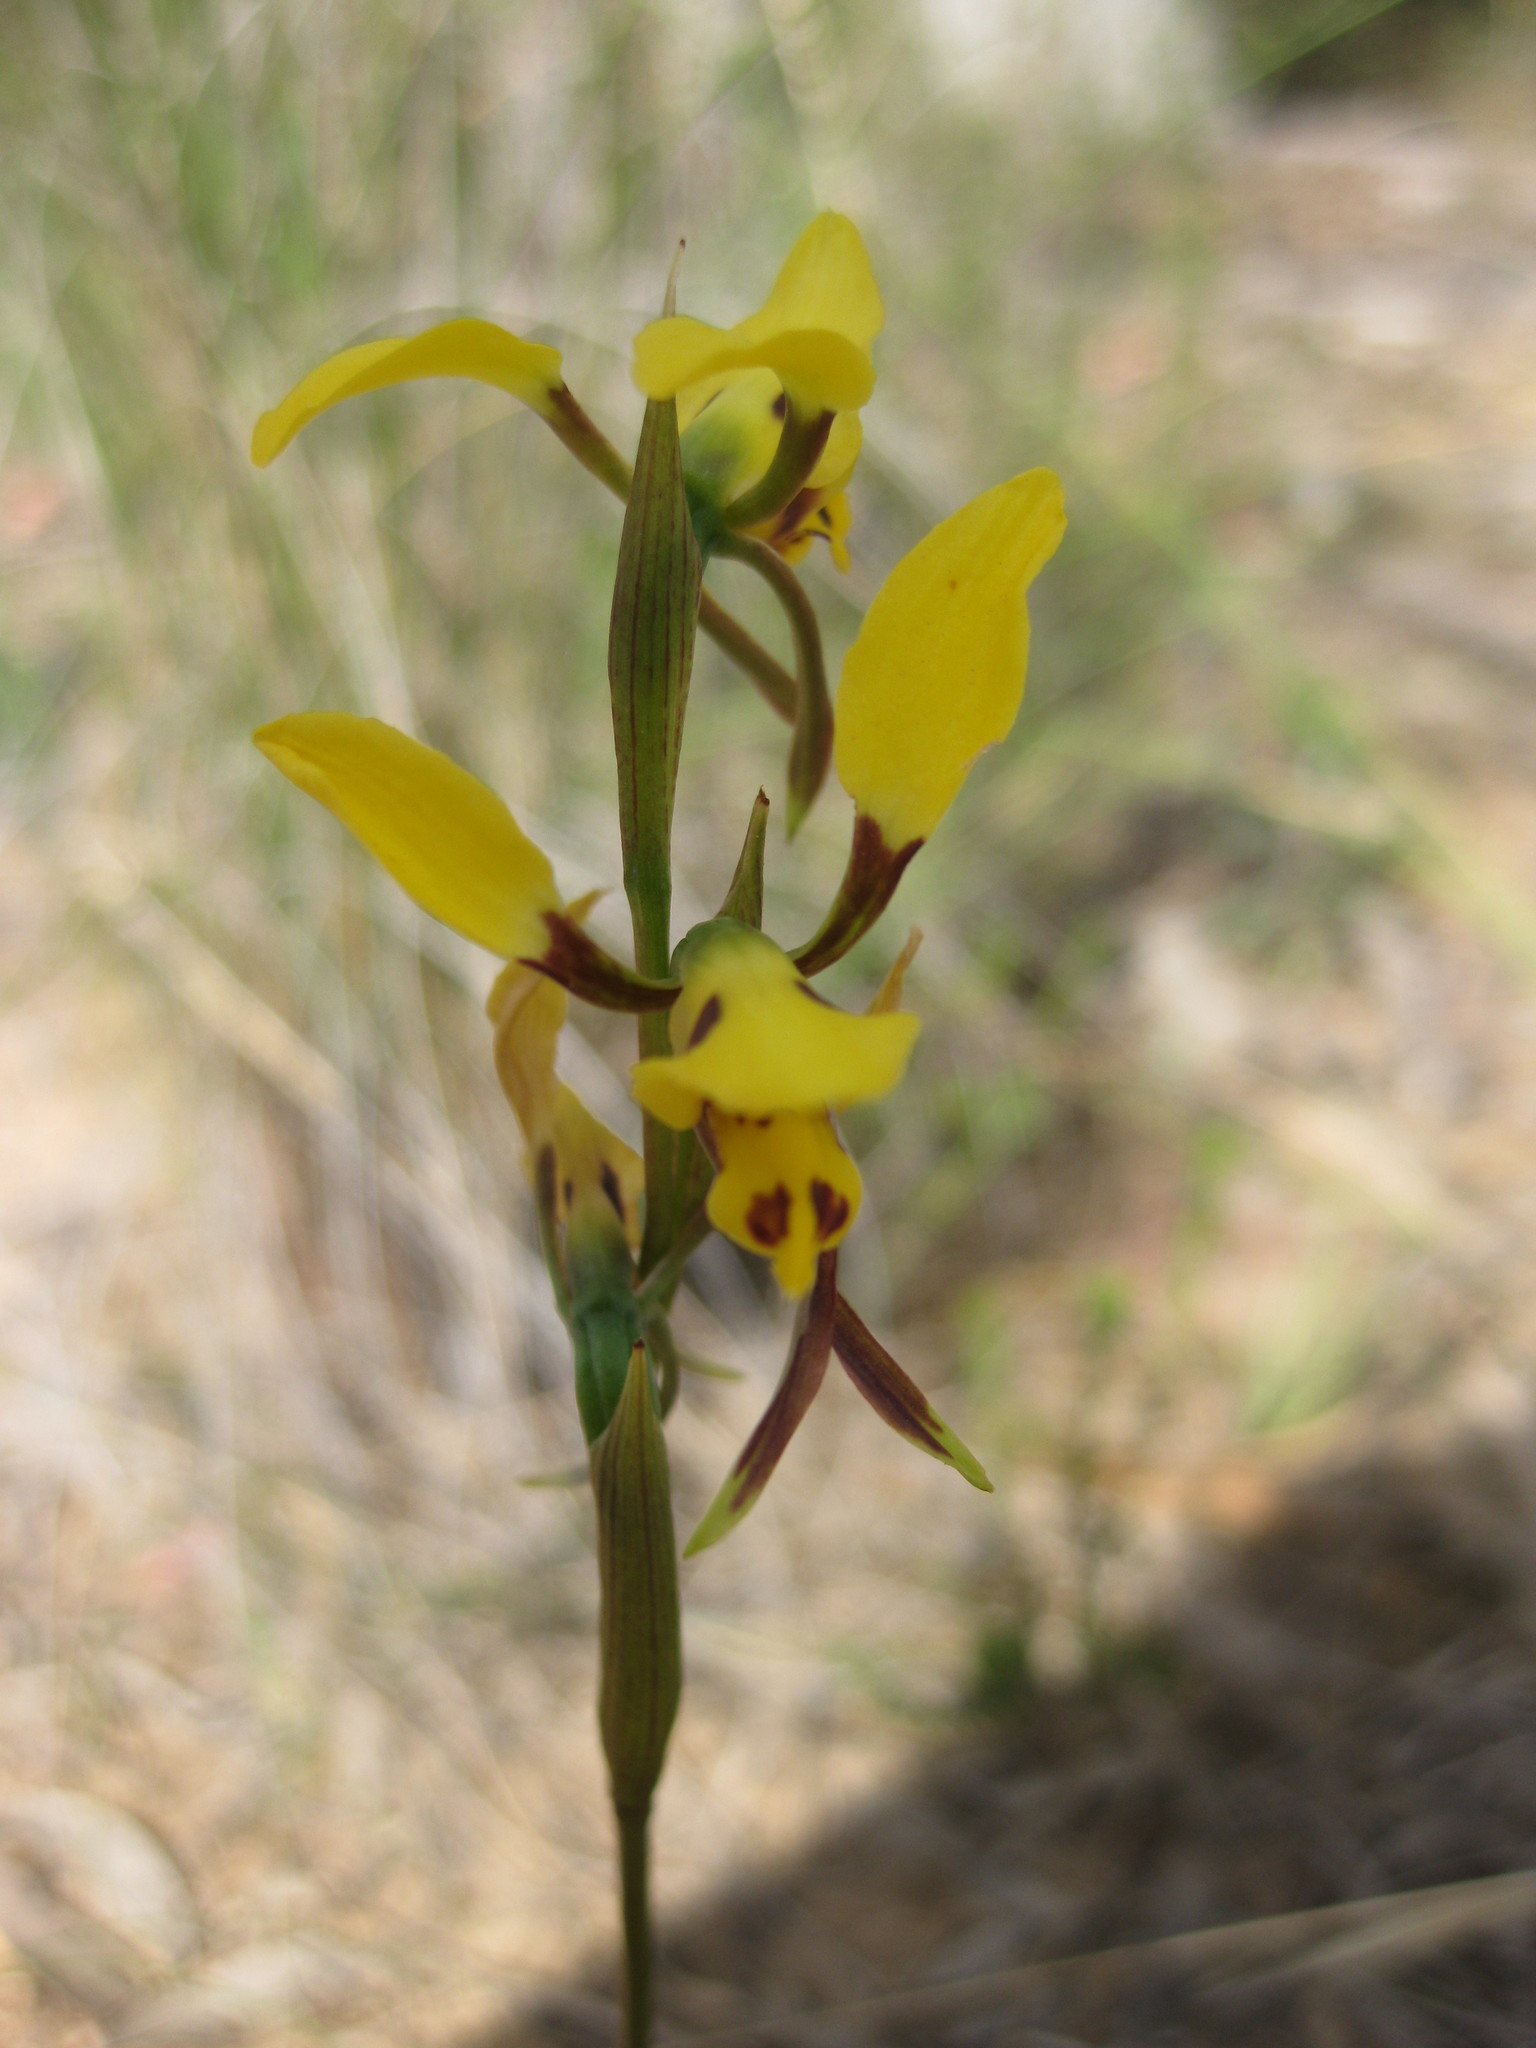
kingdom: Plantae
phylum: Tracheophyta
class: Liliopsida
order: Asparagales
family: Orchidaceae
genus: Diuris
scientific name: Diuris sulphurea
